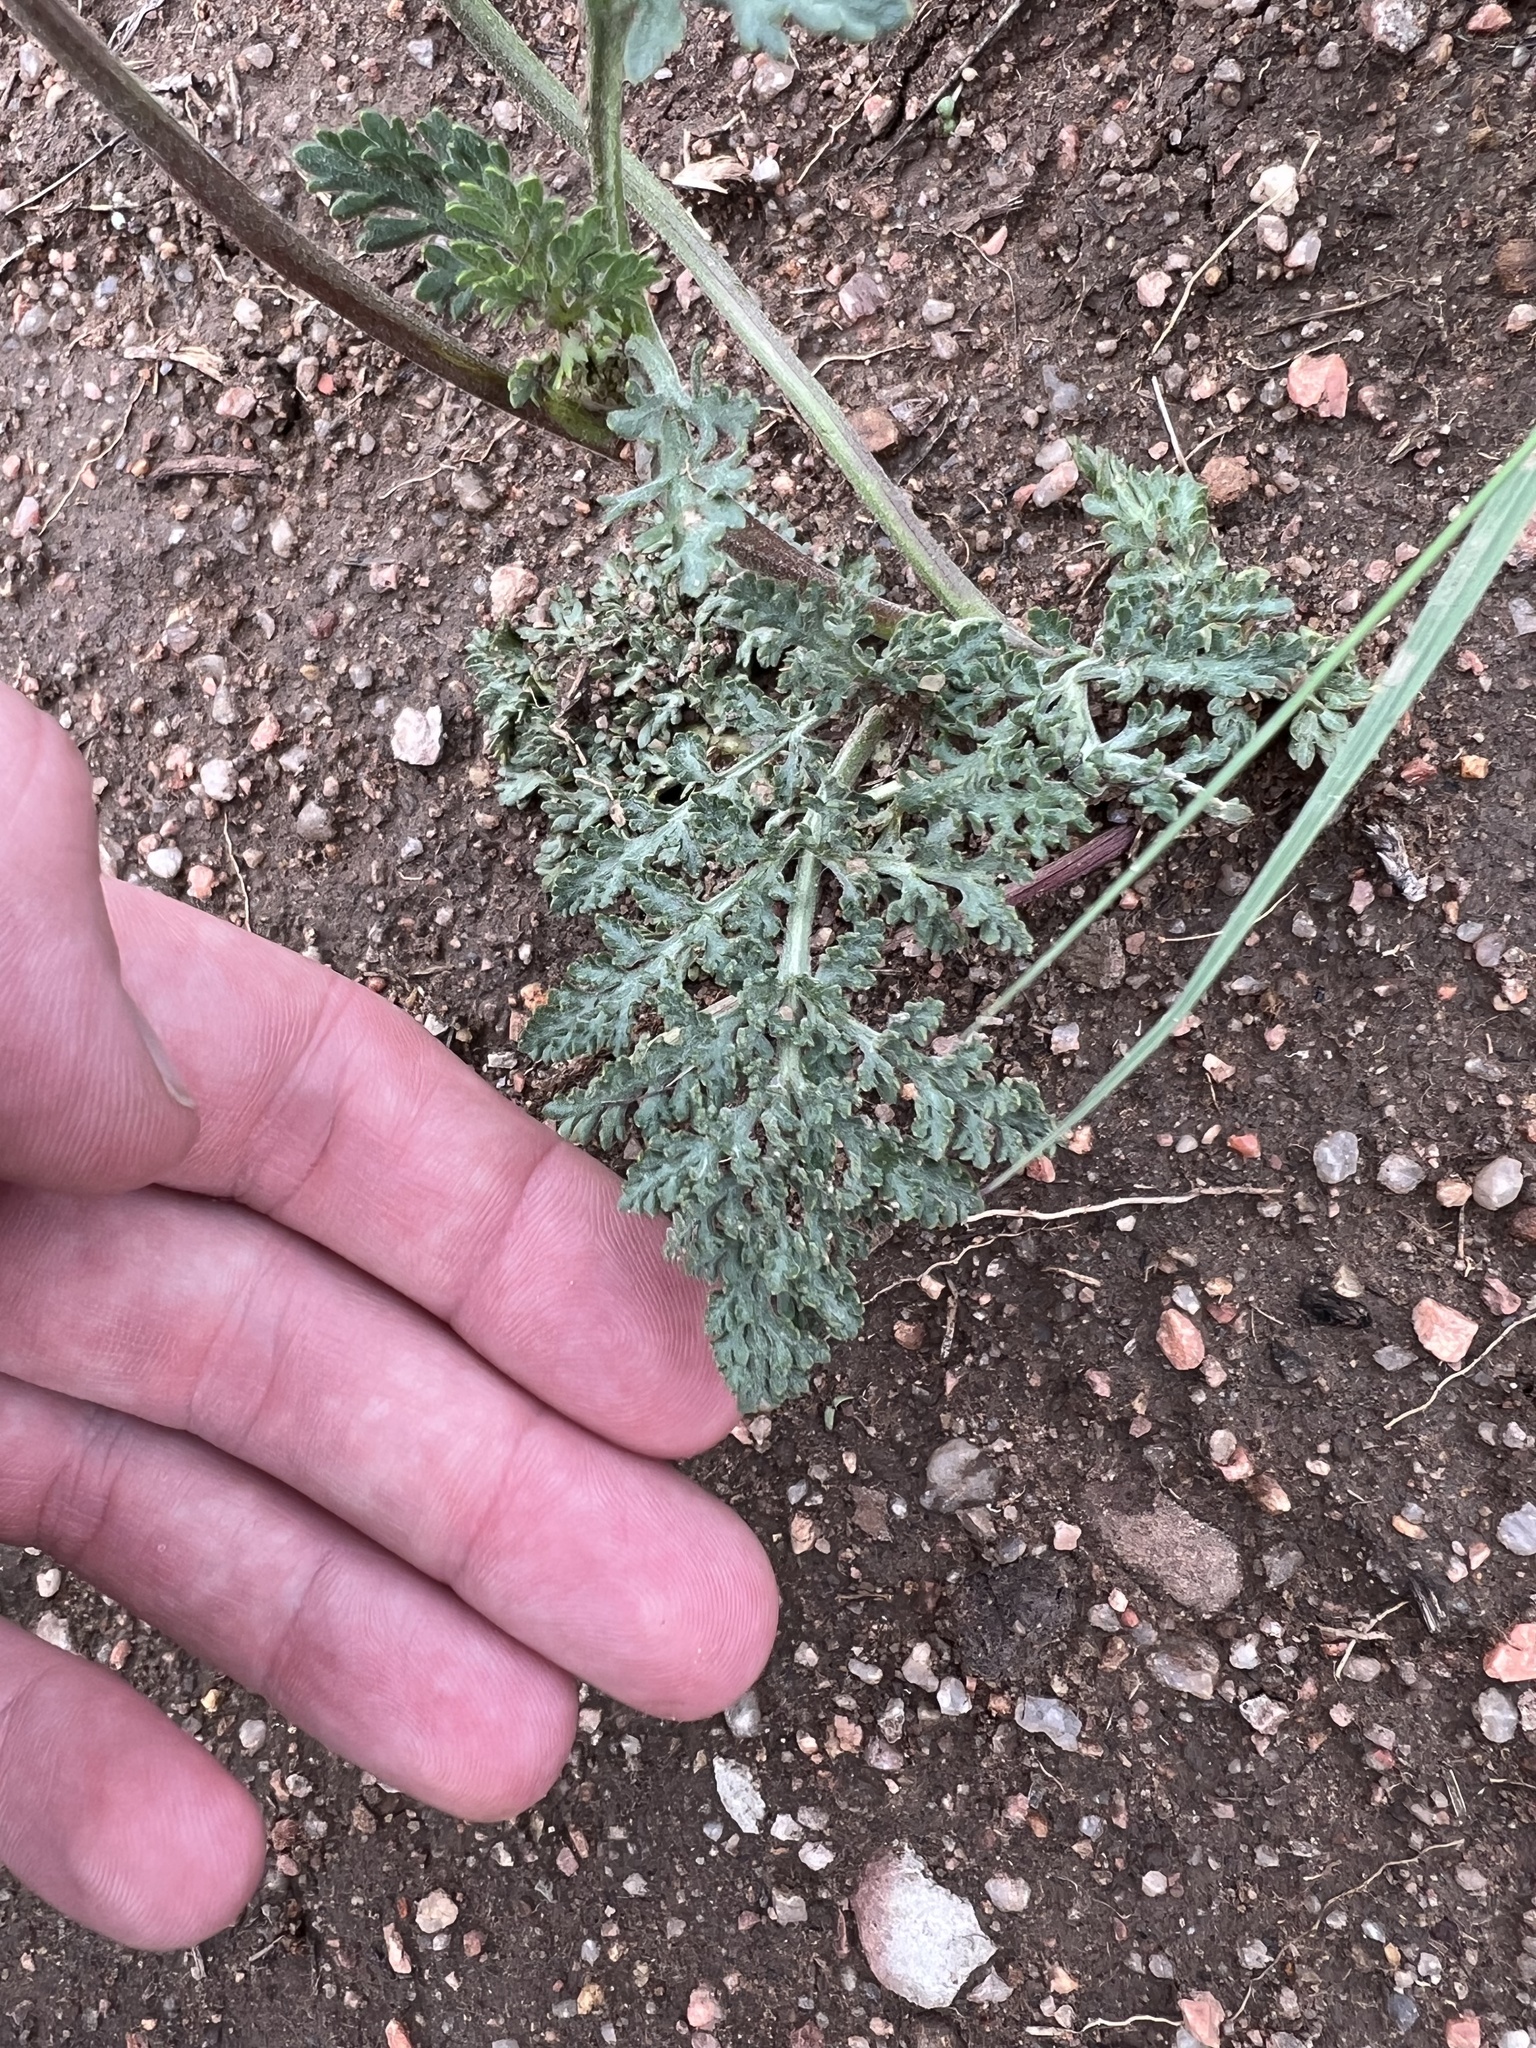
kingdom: Plantae
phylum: Tracheophyta
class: Magnoliopsida
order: Apiales
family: Apiaceae
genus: Lomatium
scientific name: Lomatium orientale
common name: Eastern cous
